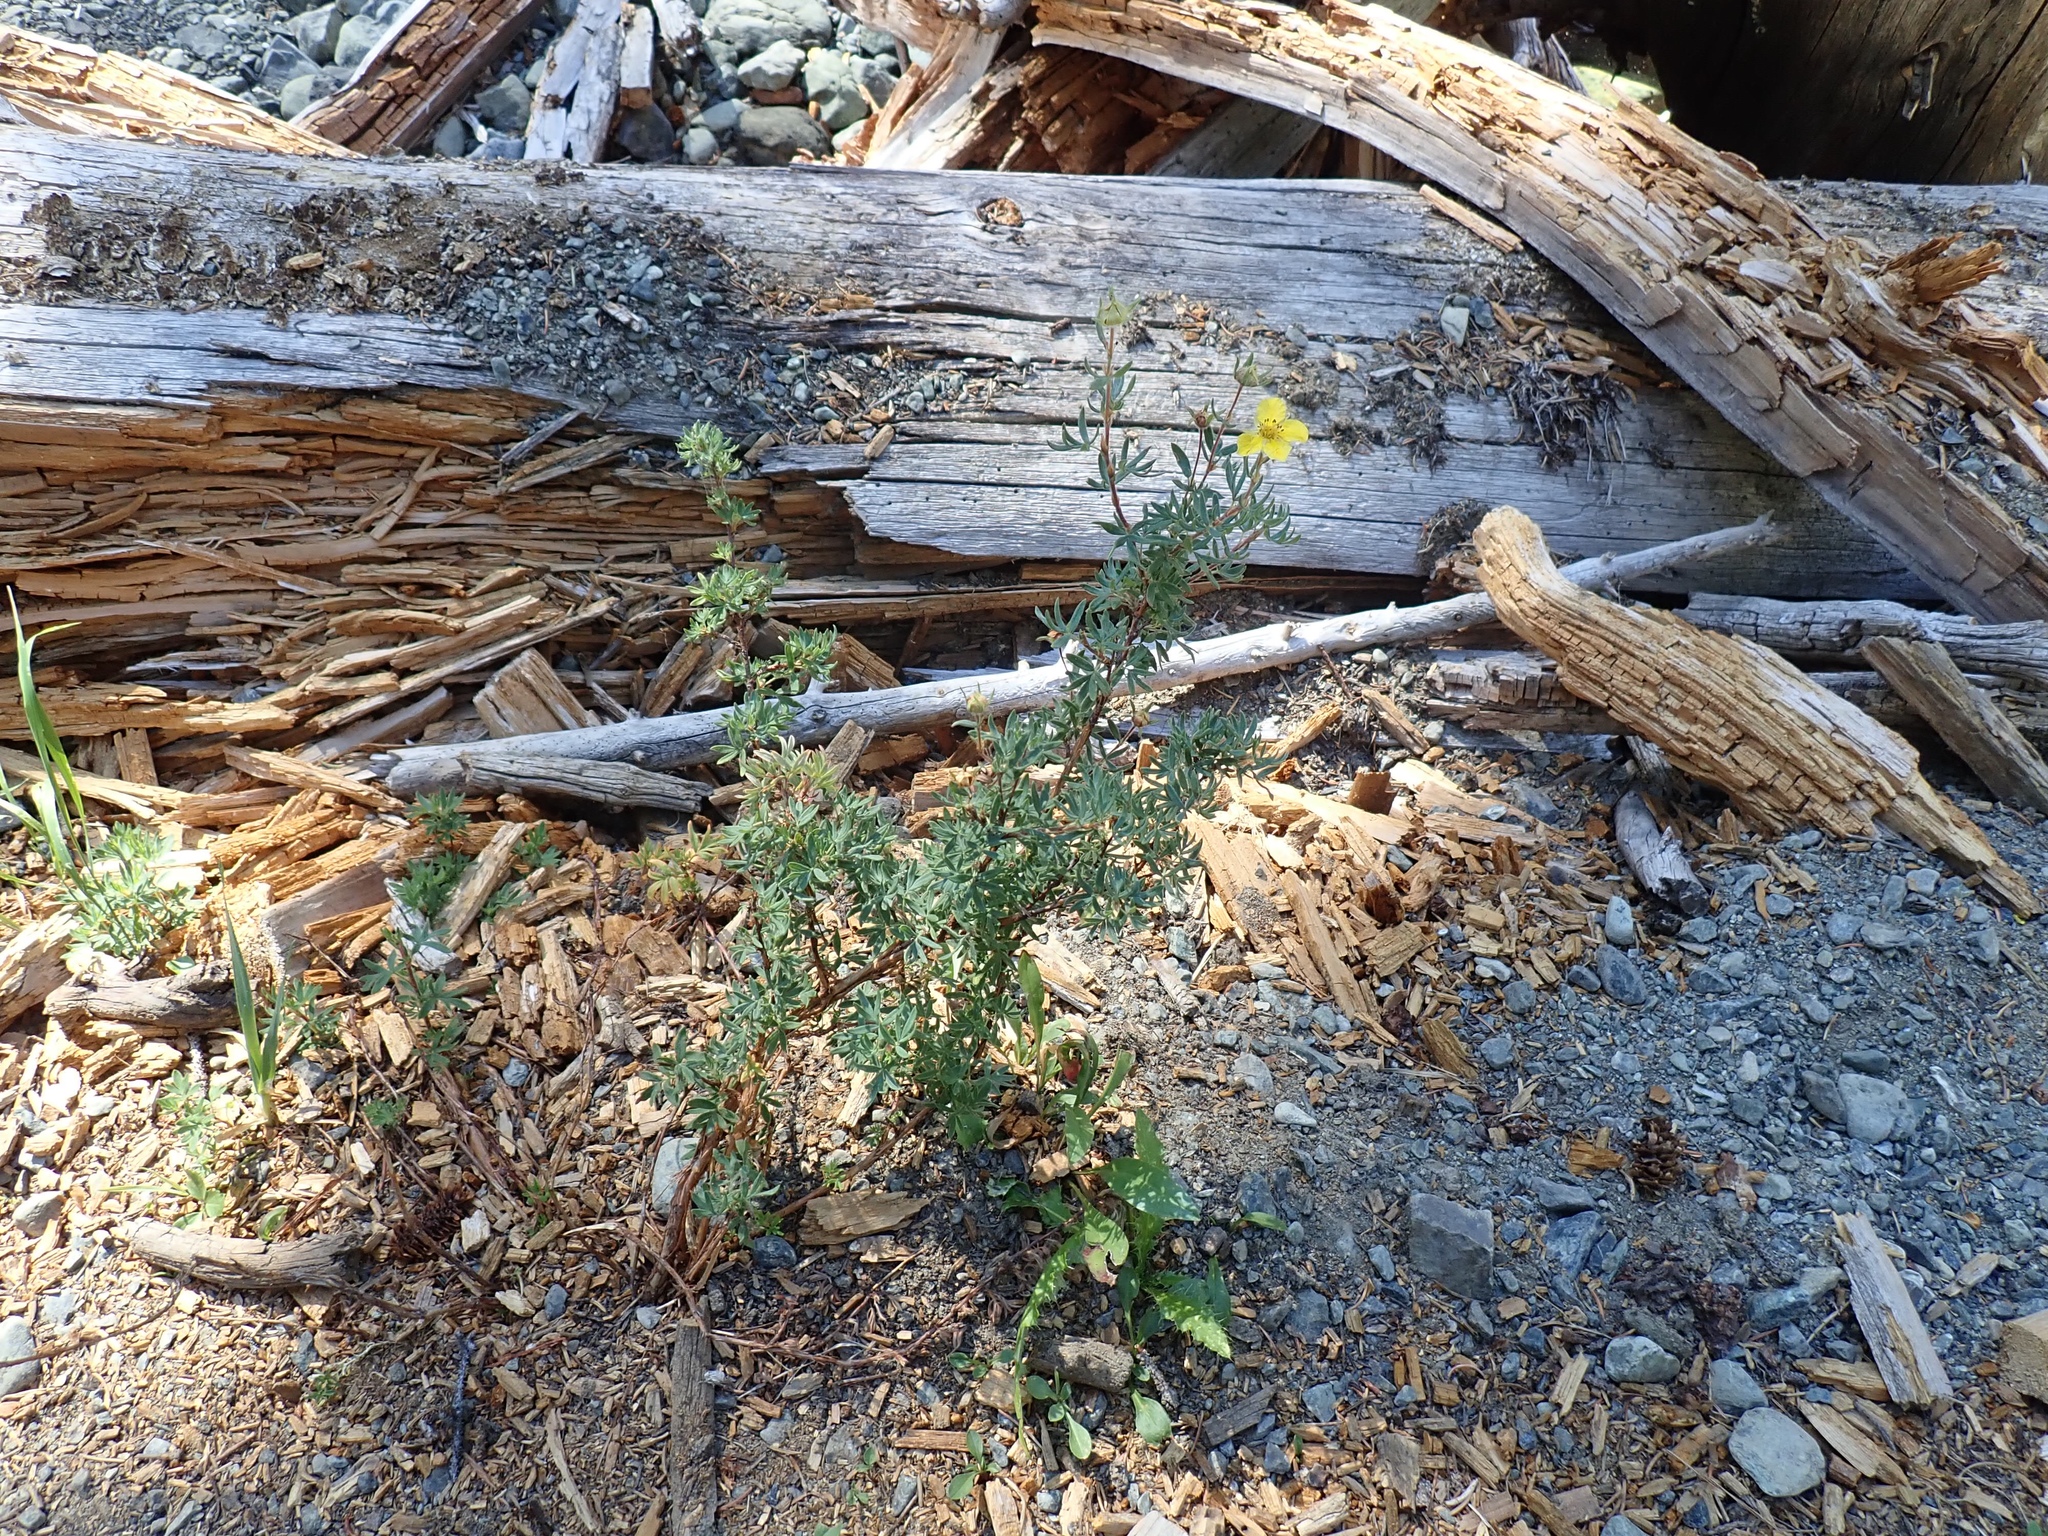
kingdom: Plantae
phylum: Tracheophyta
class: Magnoliopsida
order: Rosales
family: Rosaceae
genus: Dasiphora
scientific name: Dasiphora fruticosa
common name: Shrubby cinquefoil
